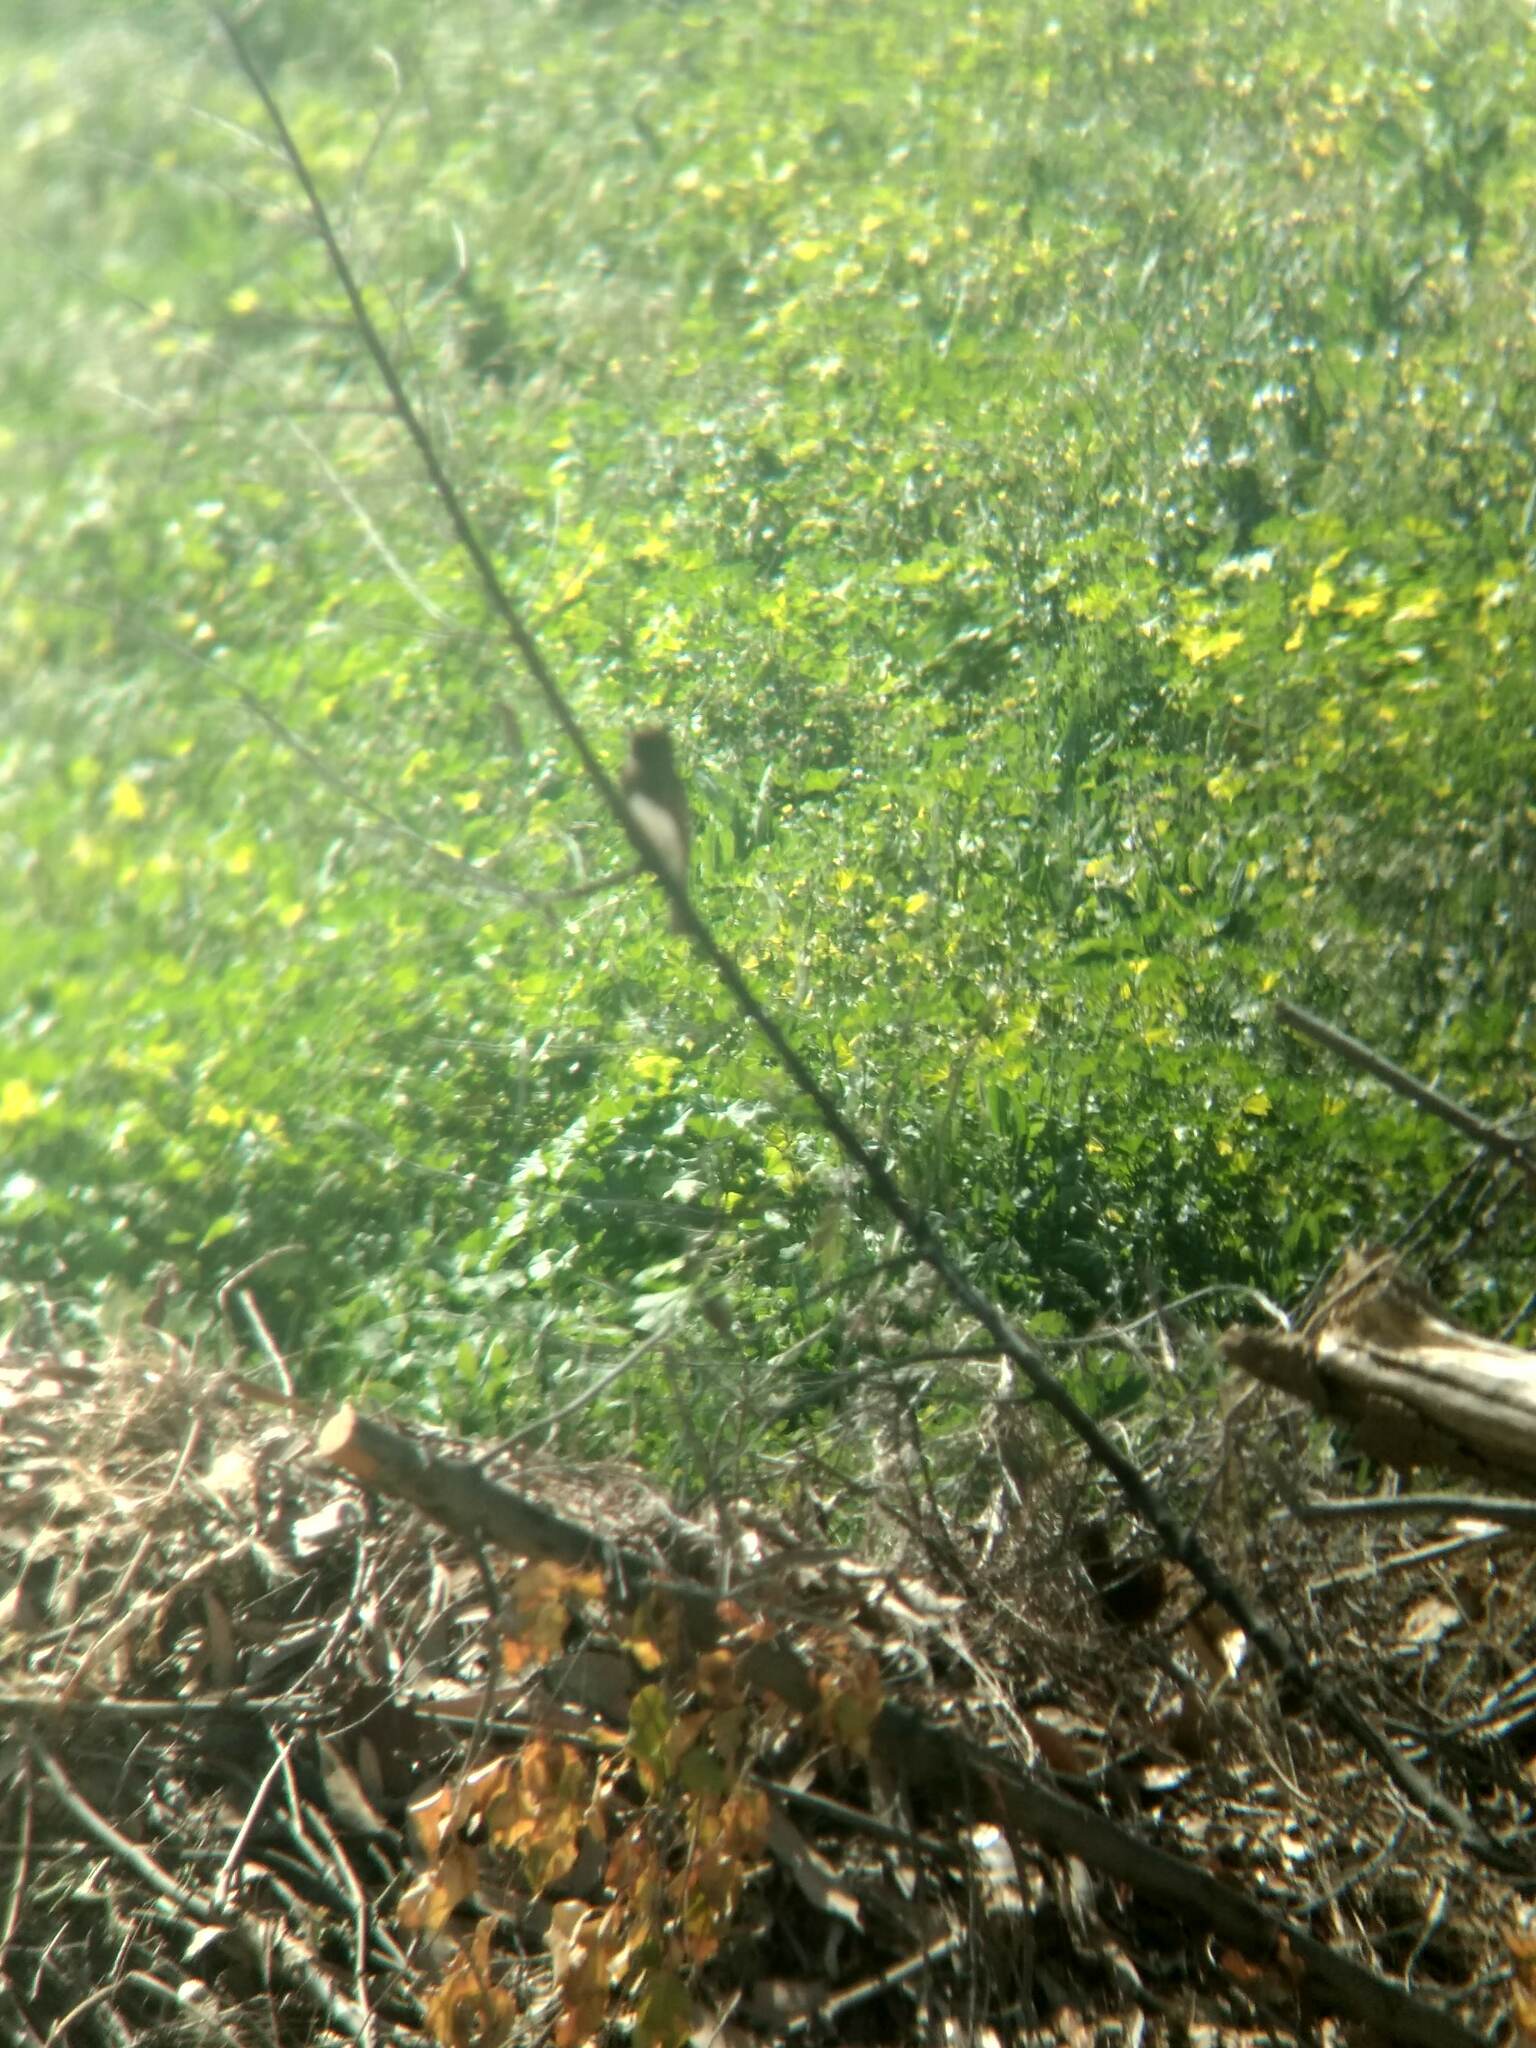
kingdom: Animalia
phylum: Chordata
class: Aves
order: Passeriformes
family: Tyrannidae
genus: Sayornis
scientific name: Sayornis nigricans
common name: Black phoebe
